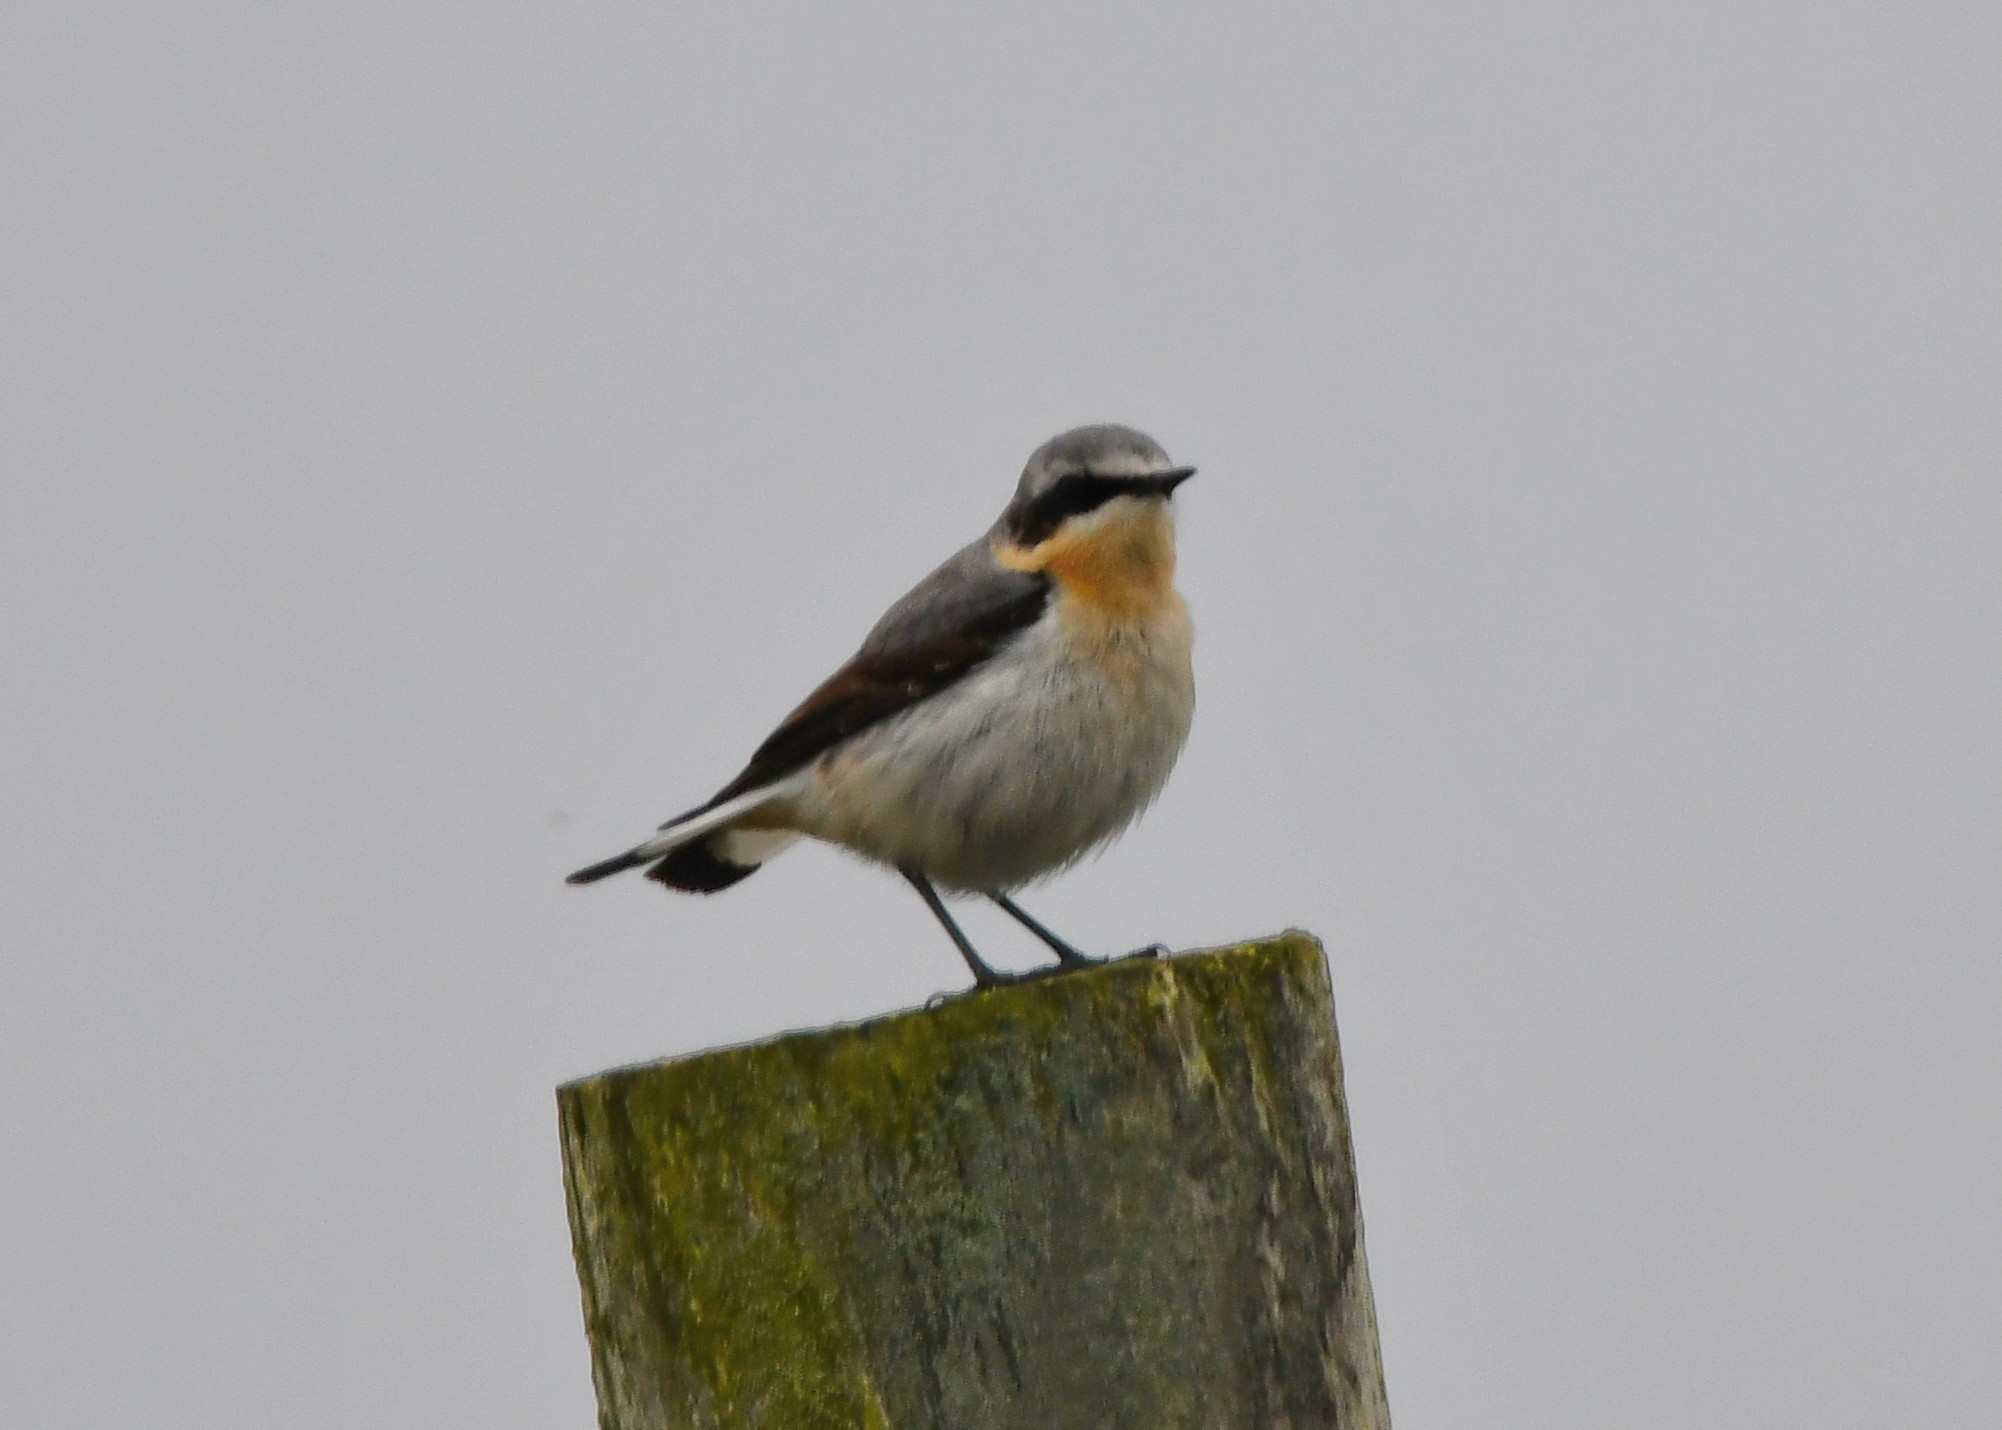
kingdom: Animalia
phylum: Chordata
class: Aves
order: Passeriformes
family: Muscicapidae
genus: Oenanthe
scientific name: Oenanthe oenanthe
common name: Northern wheatear
